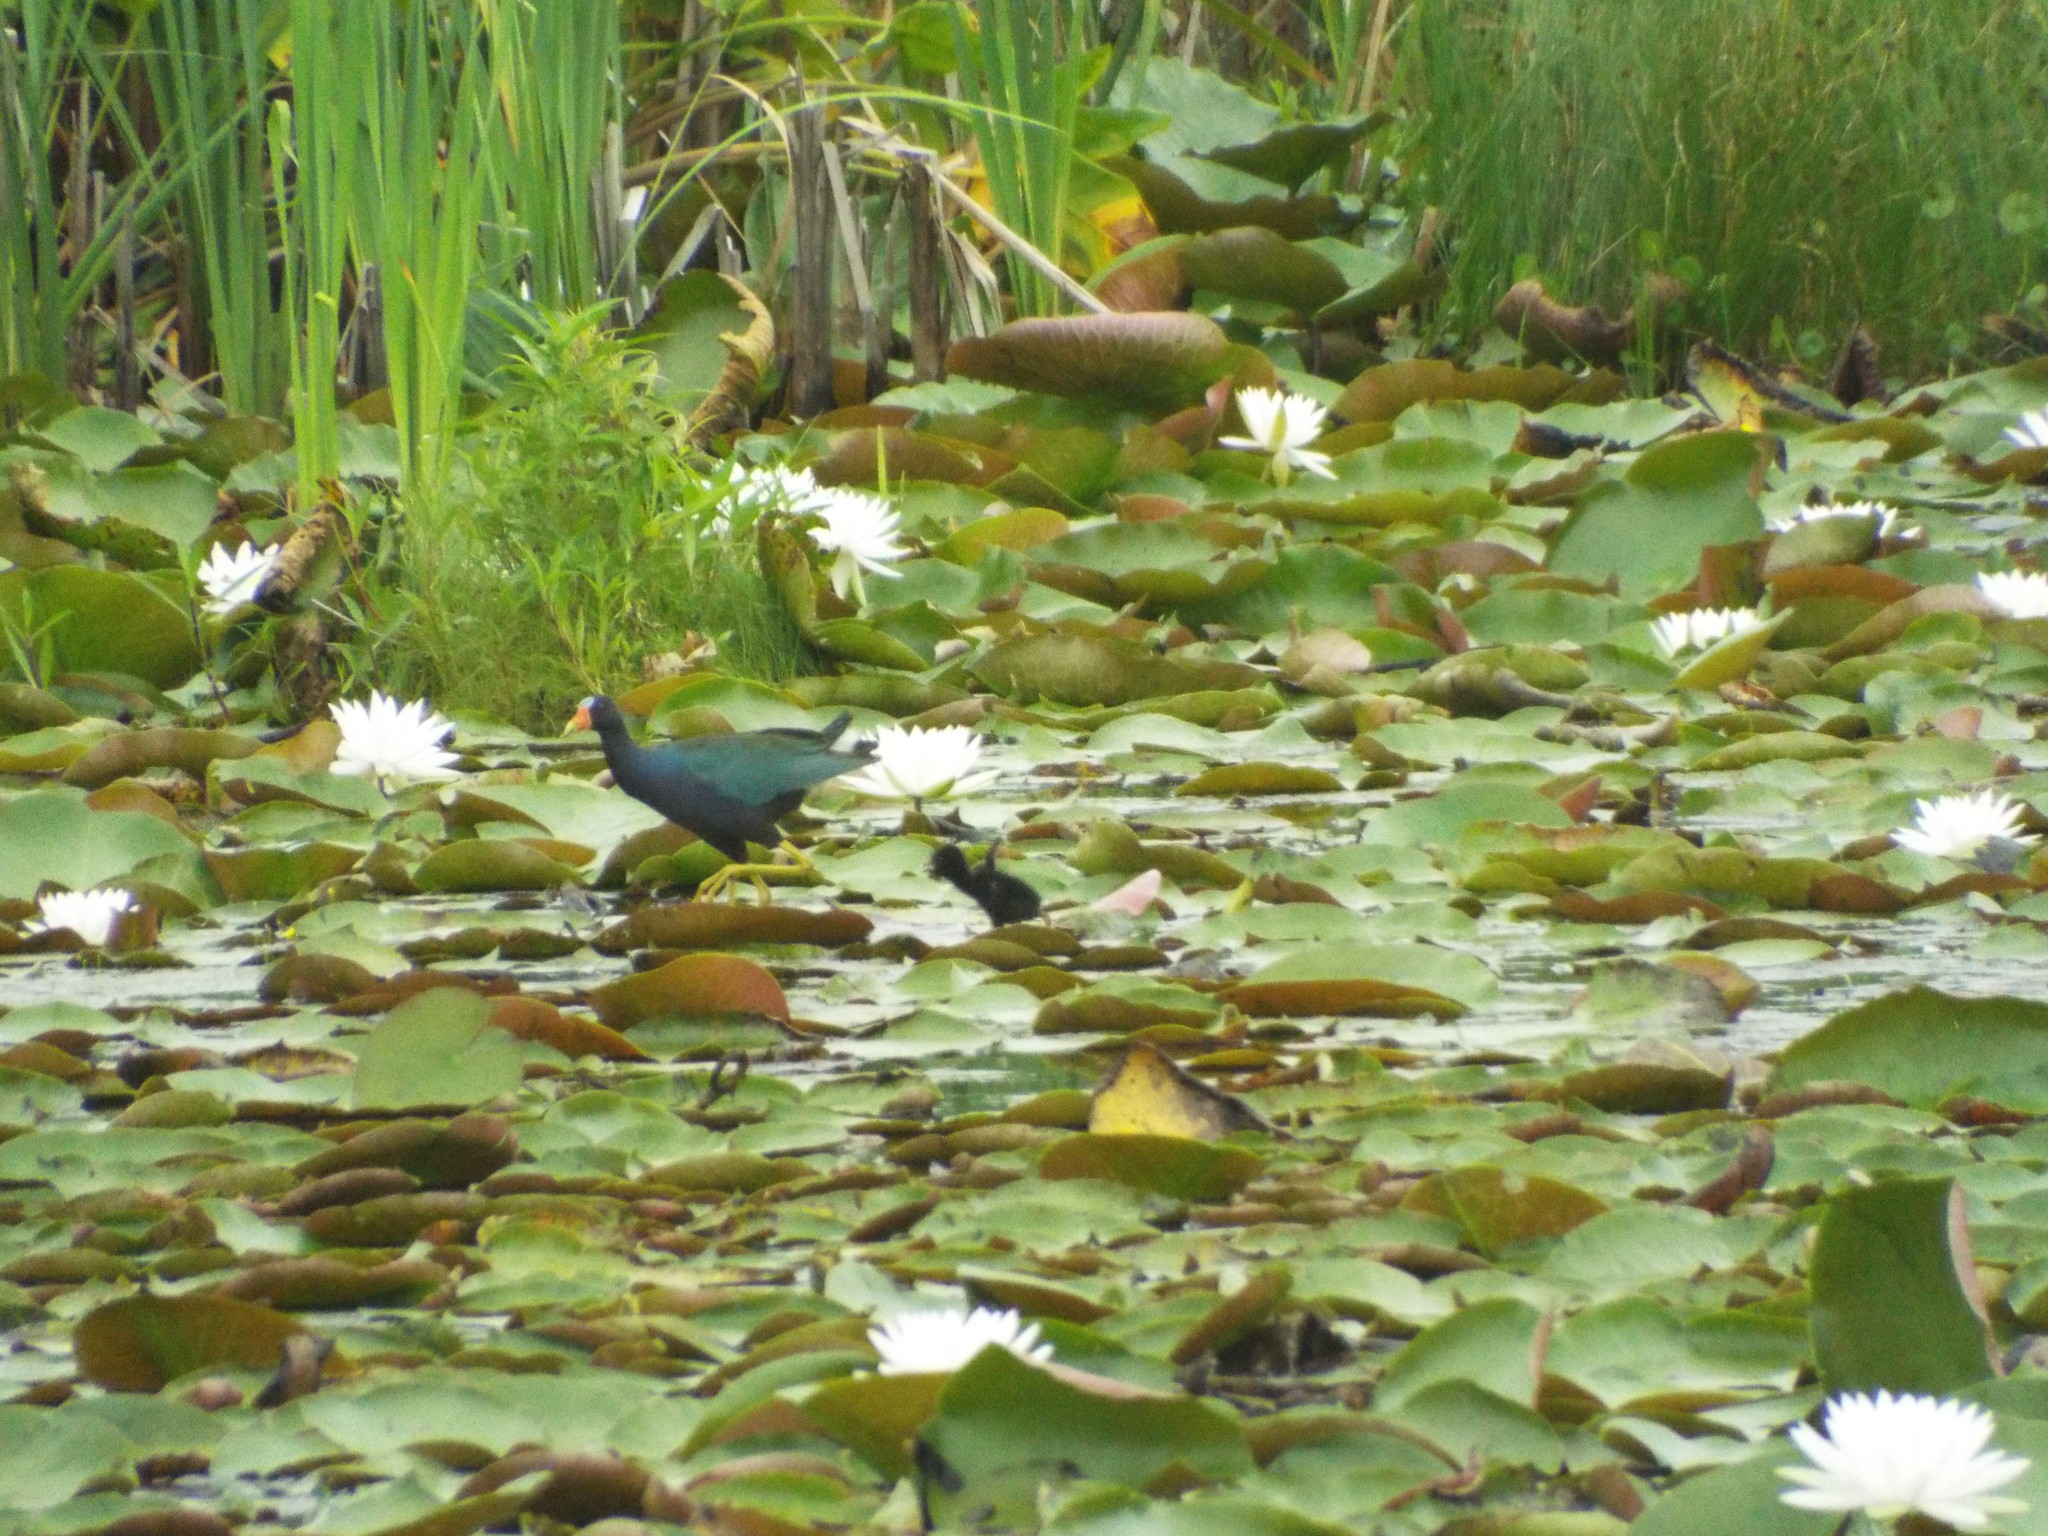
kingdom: Animalia
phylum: Chordata
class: Aves
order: Gruiformes
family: Rallidae
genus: Porphyrio
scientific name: Porphyrio martinica
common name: Purple gallinule
